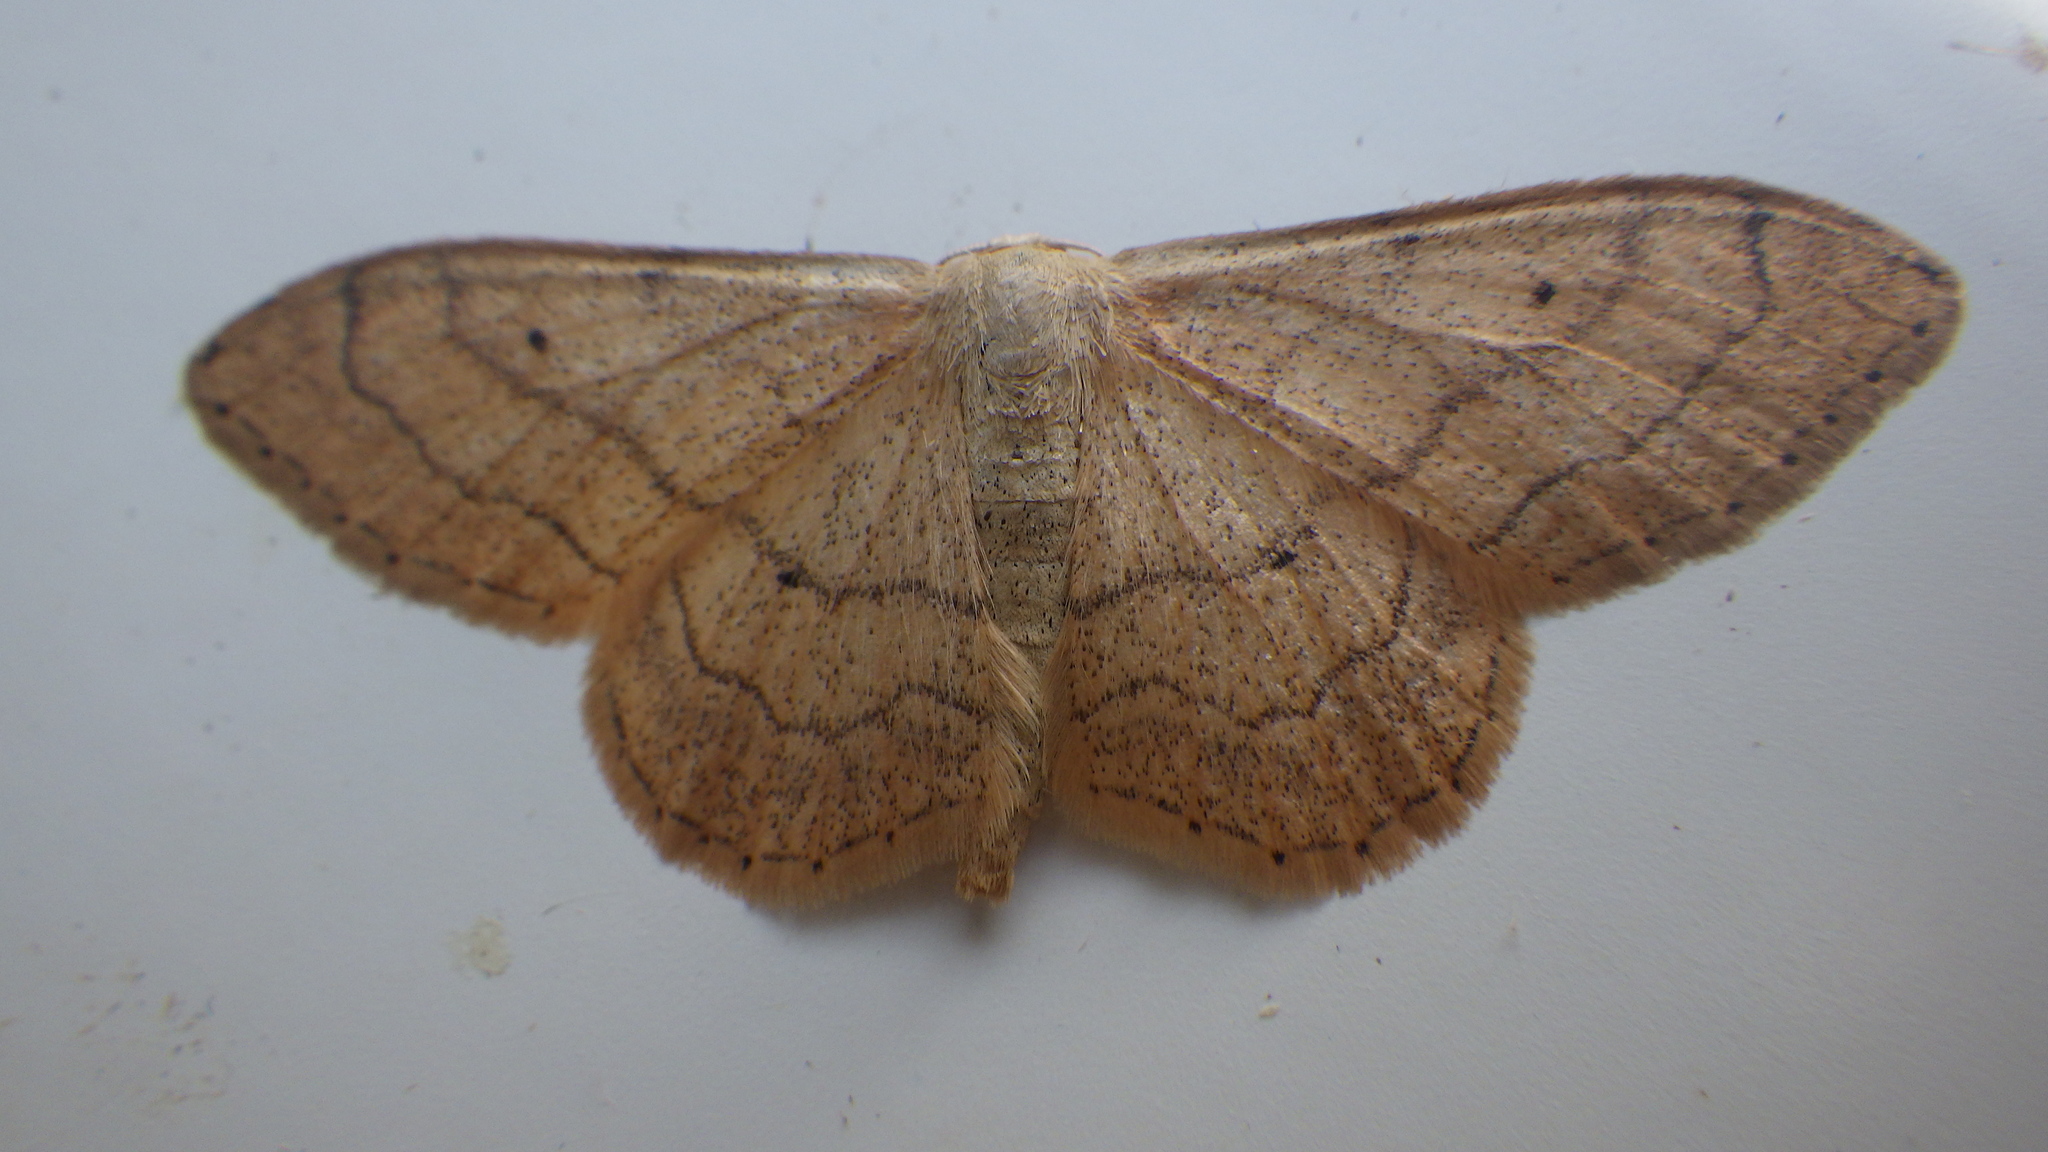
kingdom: Animalia
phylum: Arthropoda
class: Insecta
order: Lepidoptera
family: Geometridae
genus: Idaea
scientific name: Idaea aversata
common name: Riband wave
